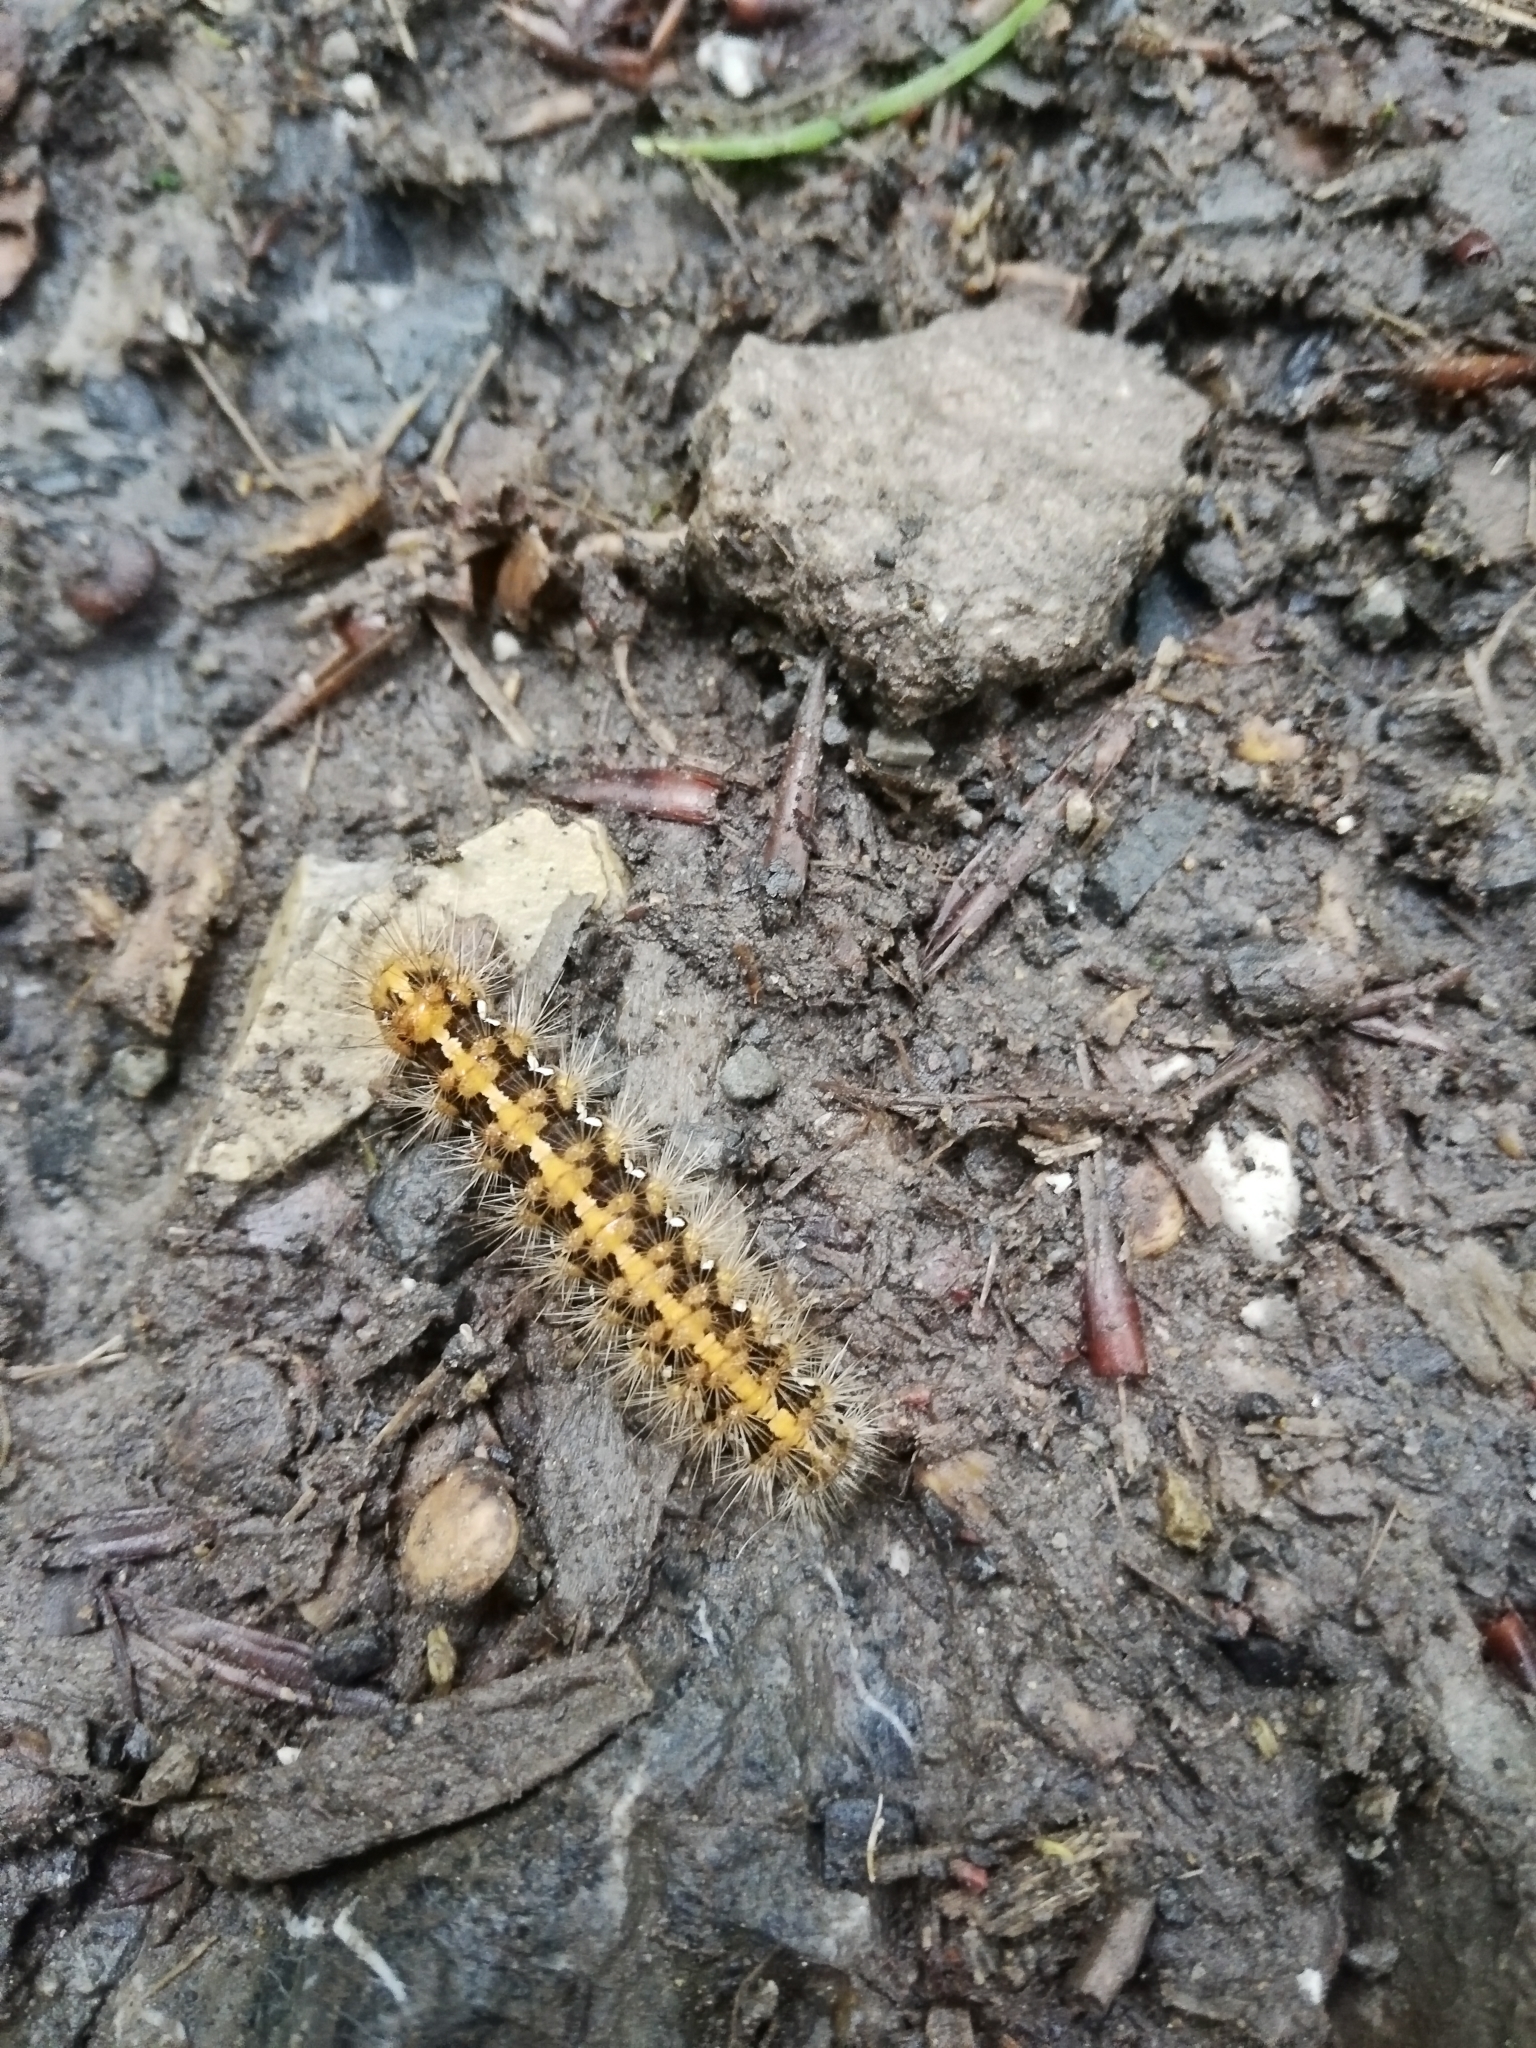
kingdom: Animalia
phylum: Arthropoda
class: Insecta
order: Lepidoptera
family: Erebidae
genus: Euplagia
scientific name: Euplagia quadripunctaria
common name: Jersey tiger
